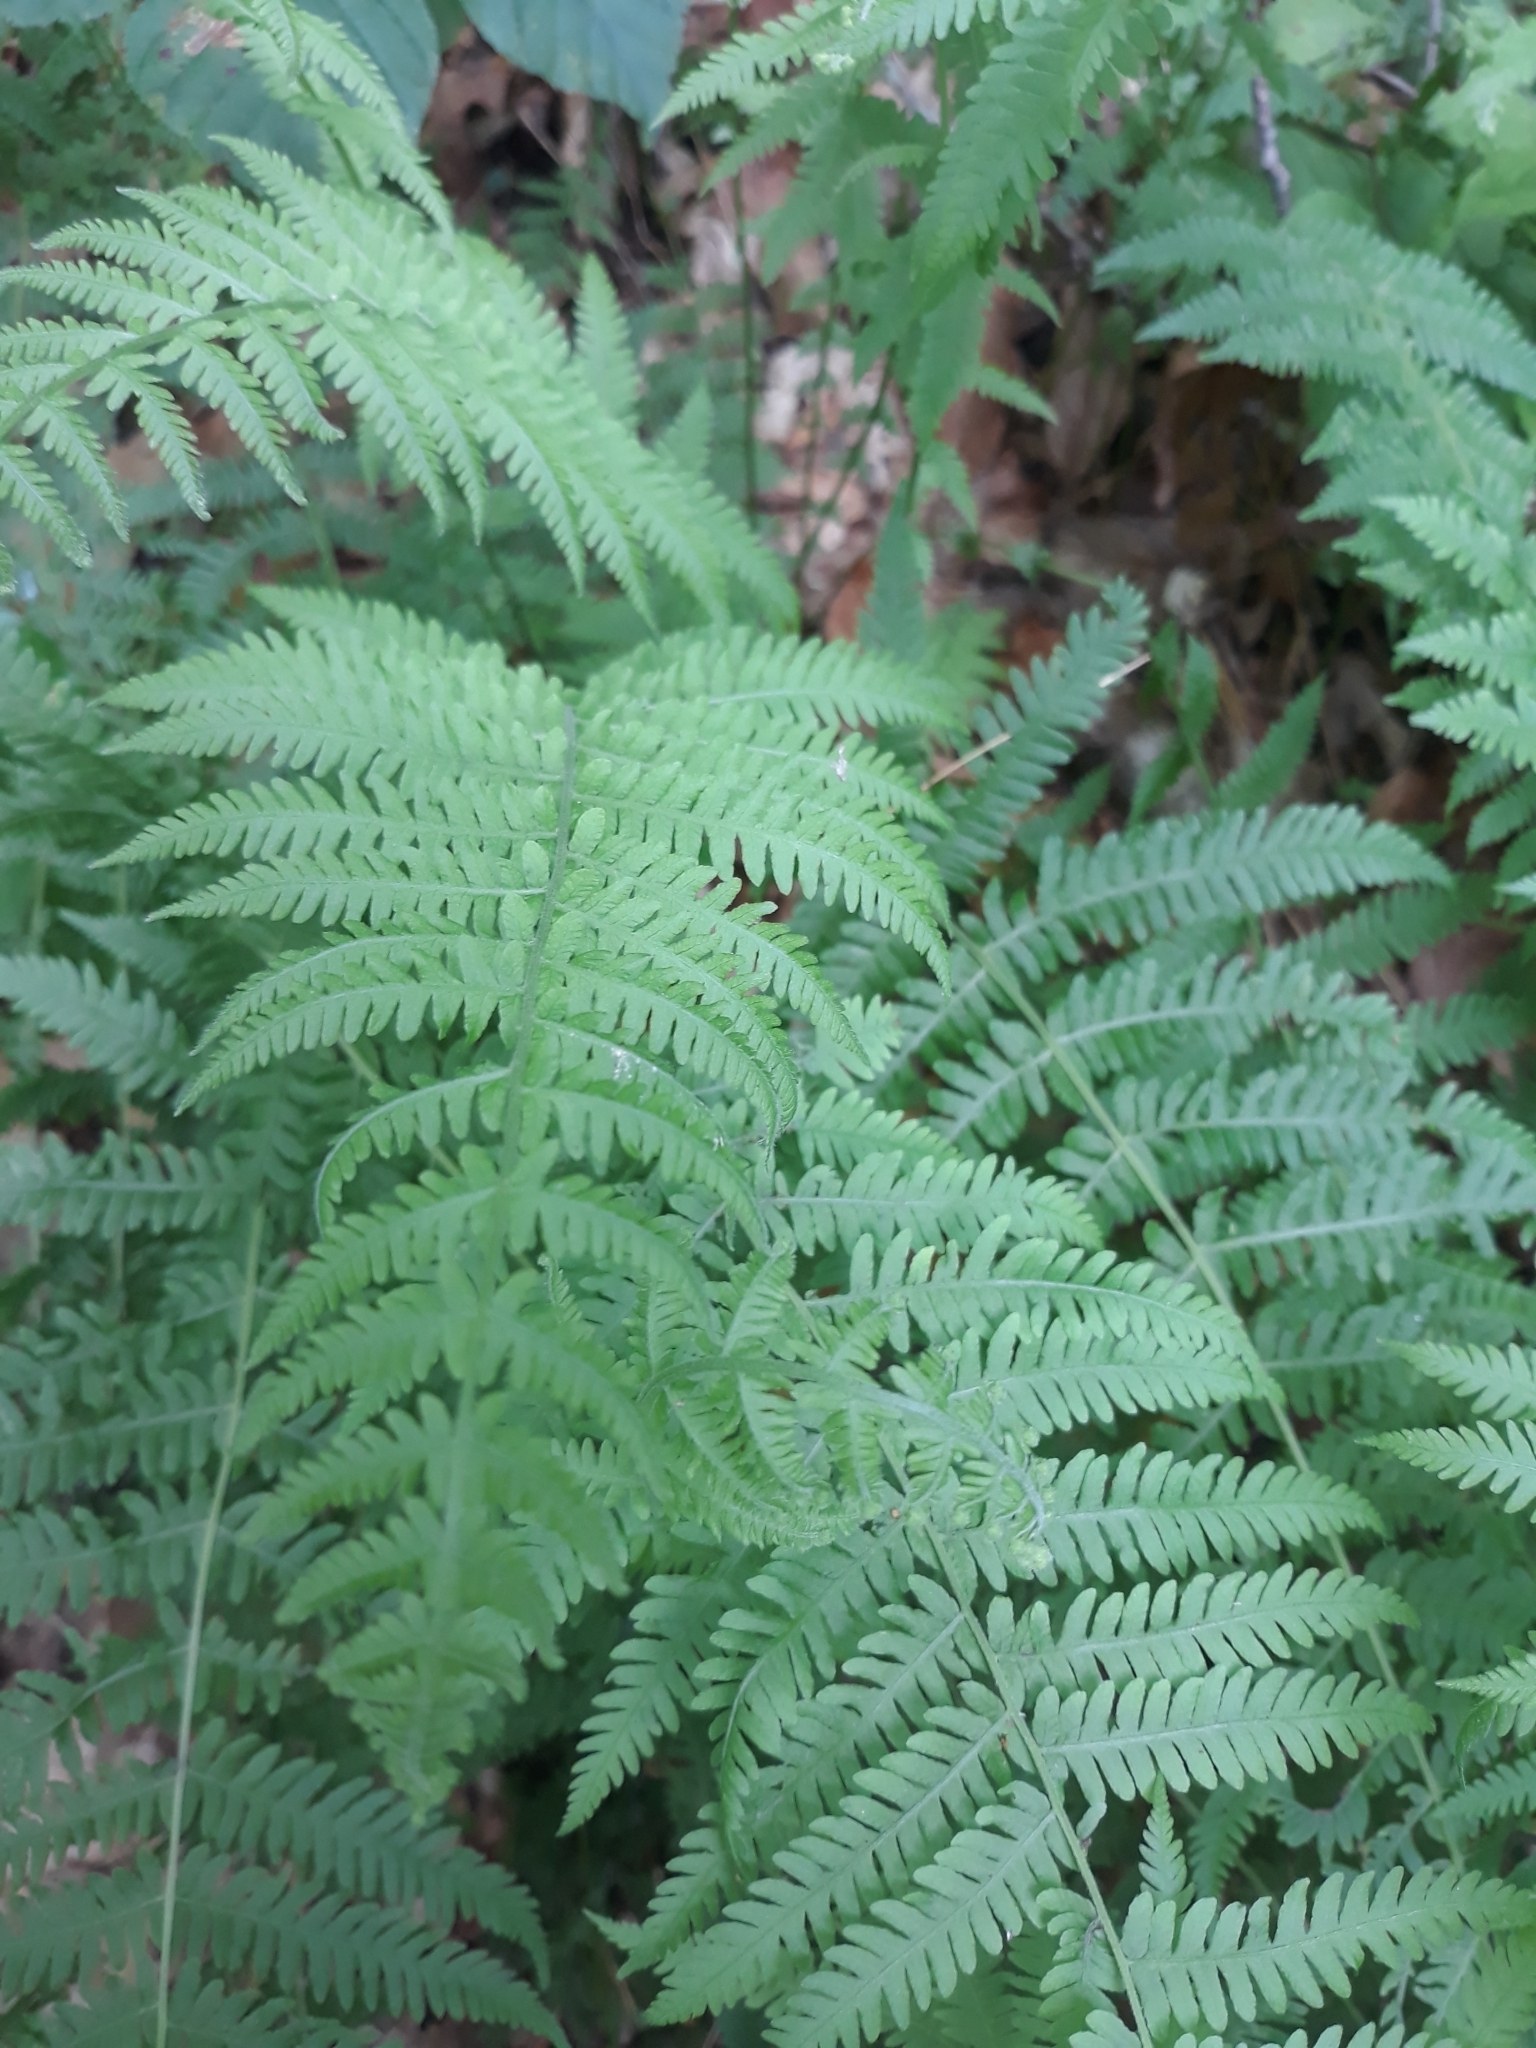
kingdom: Plantae
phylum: Tracheophyta
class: Polypodiopsida
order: Polypodiales
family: Thelypteridaceae
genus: Amauropelta
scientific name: Amauropelta noveboracensis
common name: New york fern
